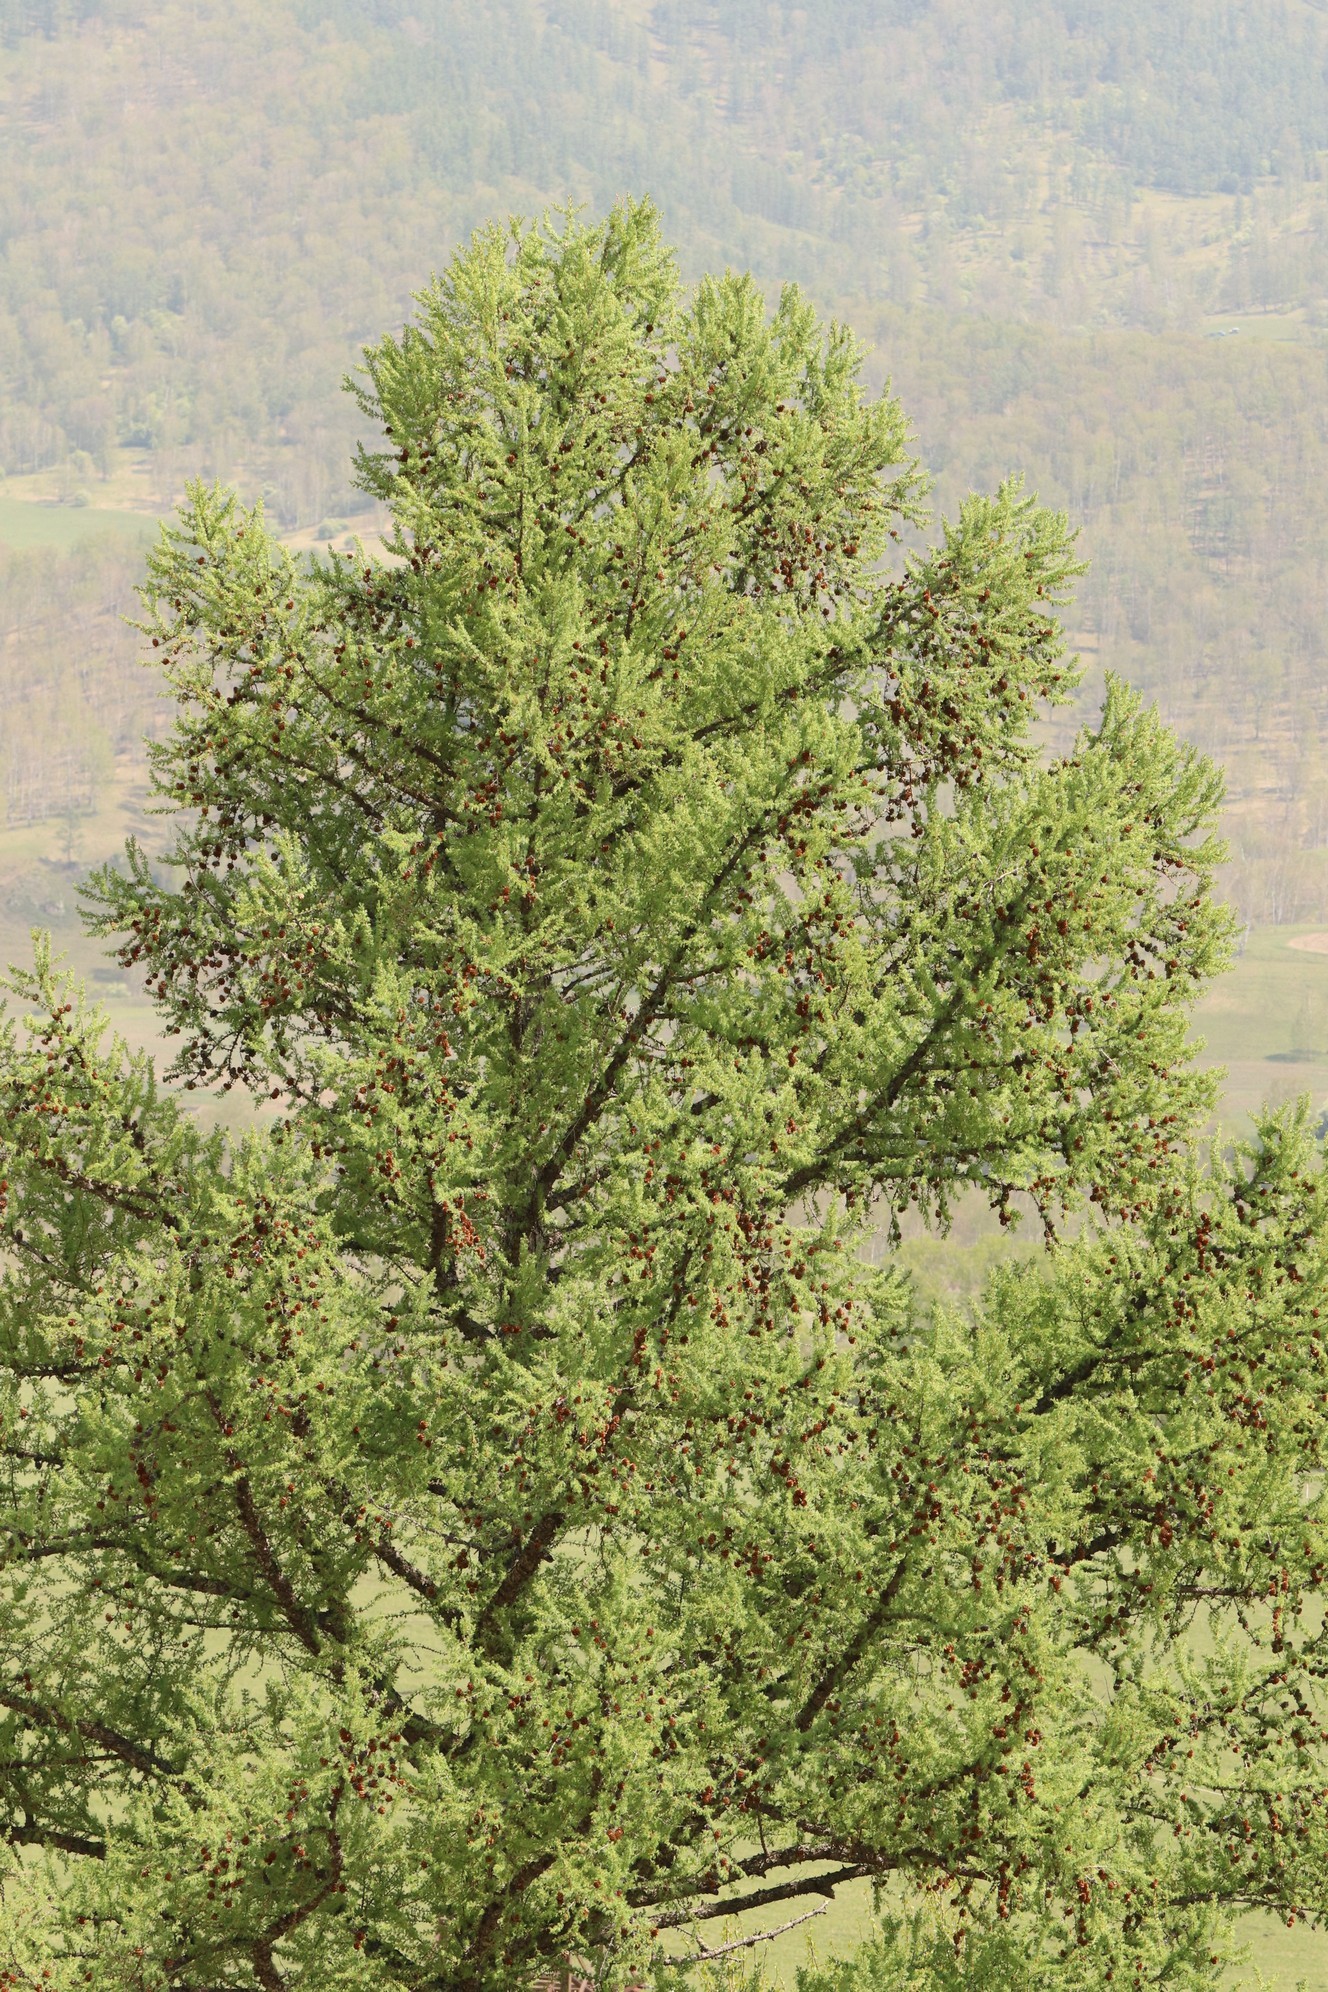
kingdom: Plantae
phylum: Tracheophyta
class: Pinopsida
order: Pinales
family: Pinaceae
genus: Larix
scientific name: Larix sibirica
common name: Siberian larch
